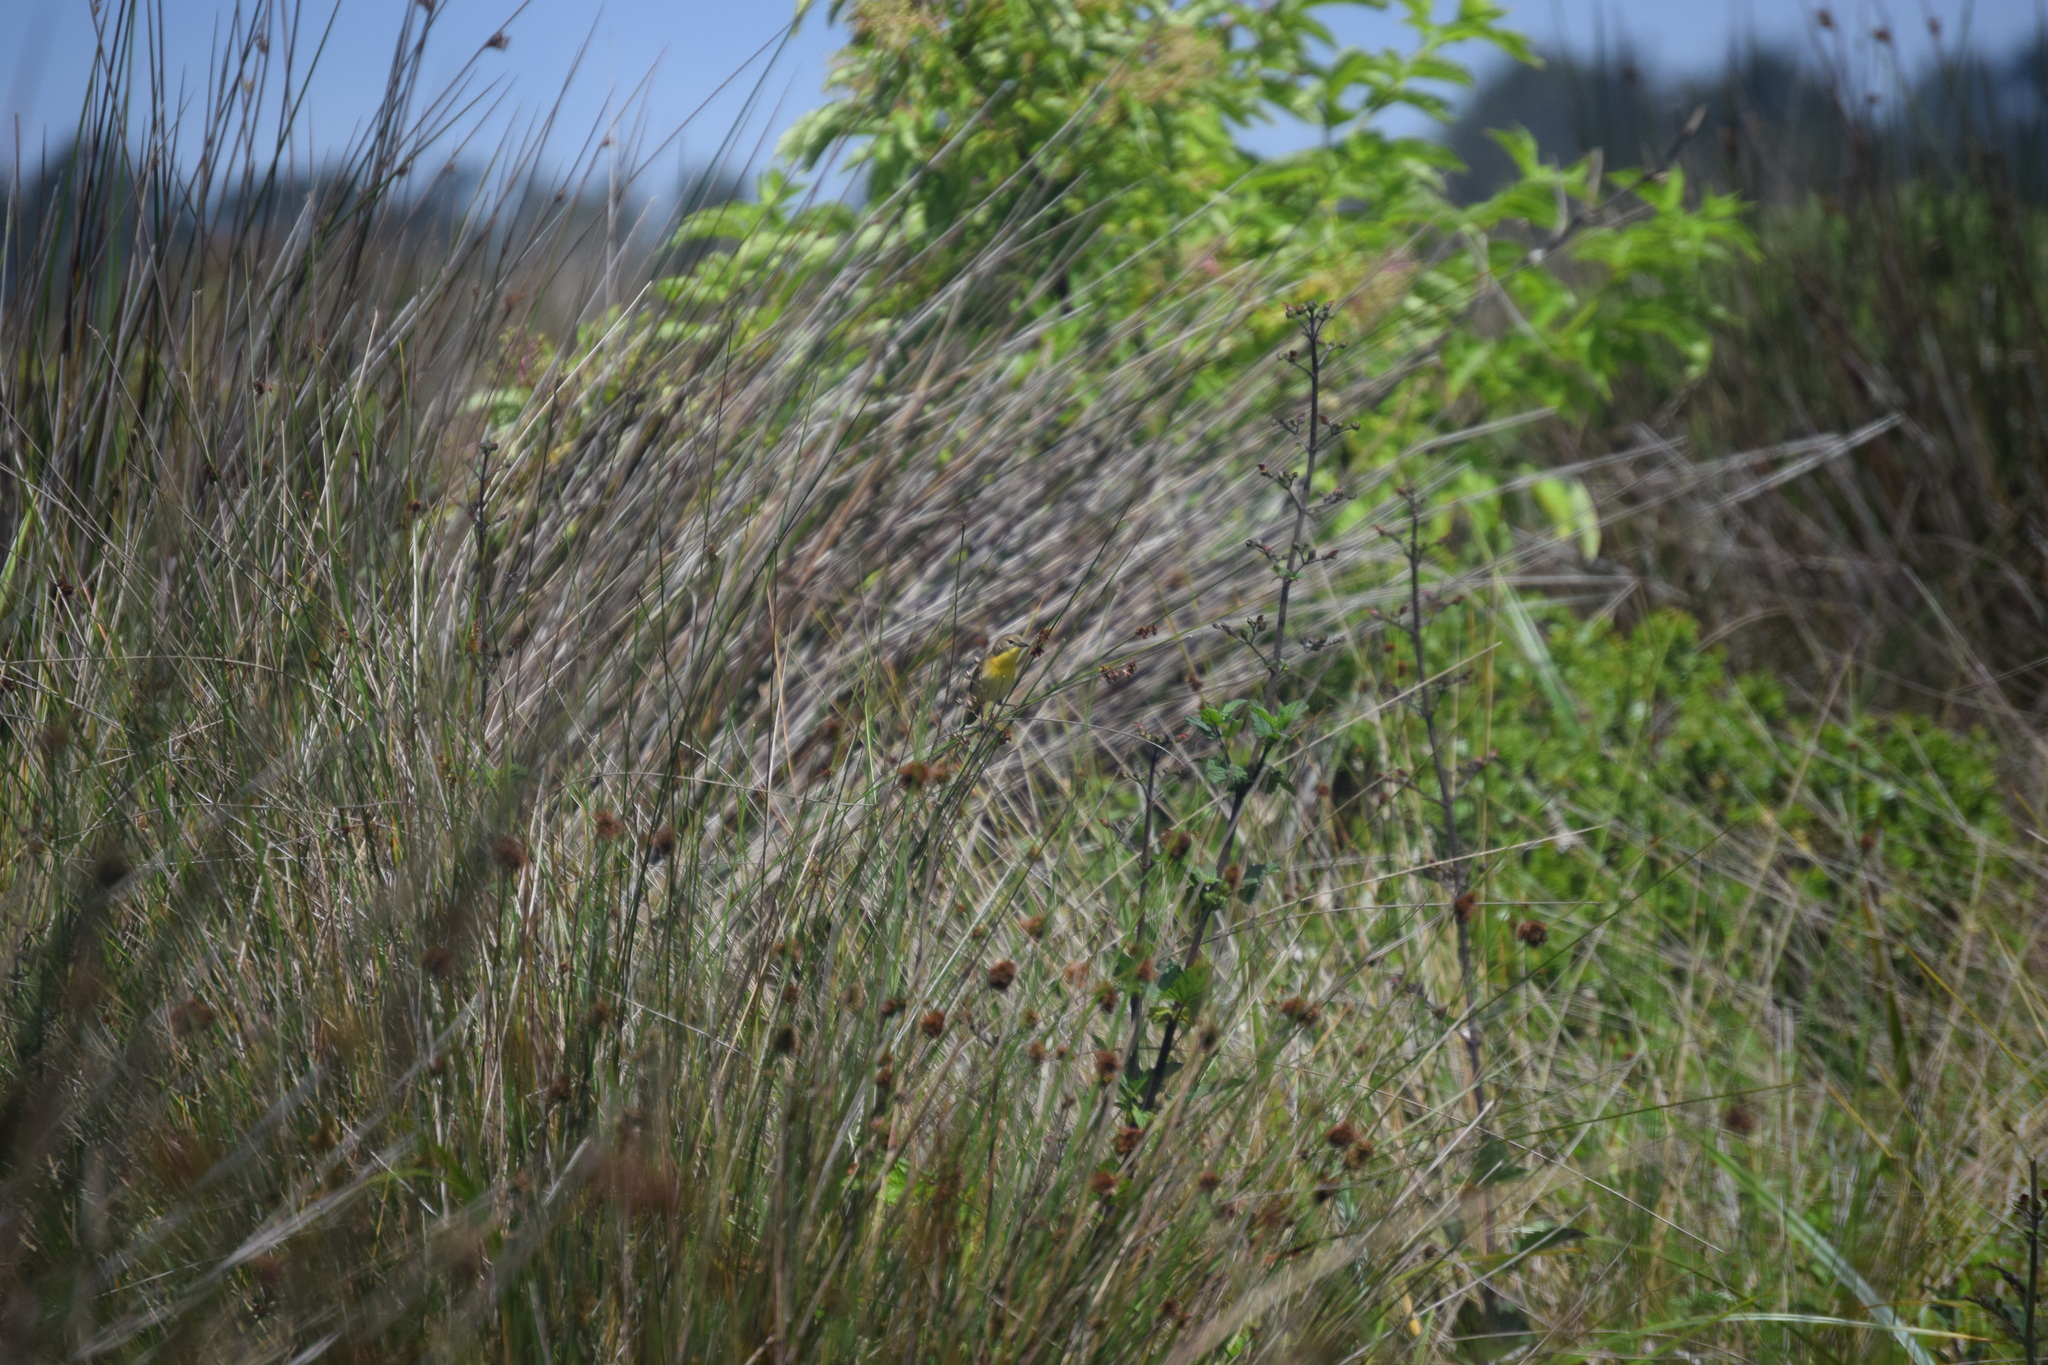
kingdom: Animalia
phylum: Chordata
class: Aves
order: Passeriformes
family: Parulidae
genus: Geothlypis
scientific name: Geothlypis trichas
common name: Common yellowthroat
